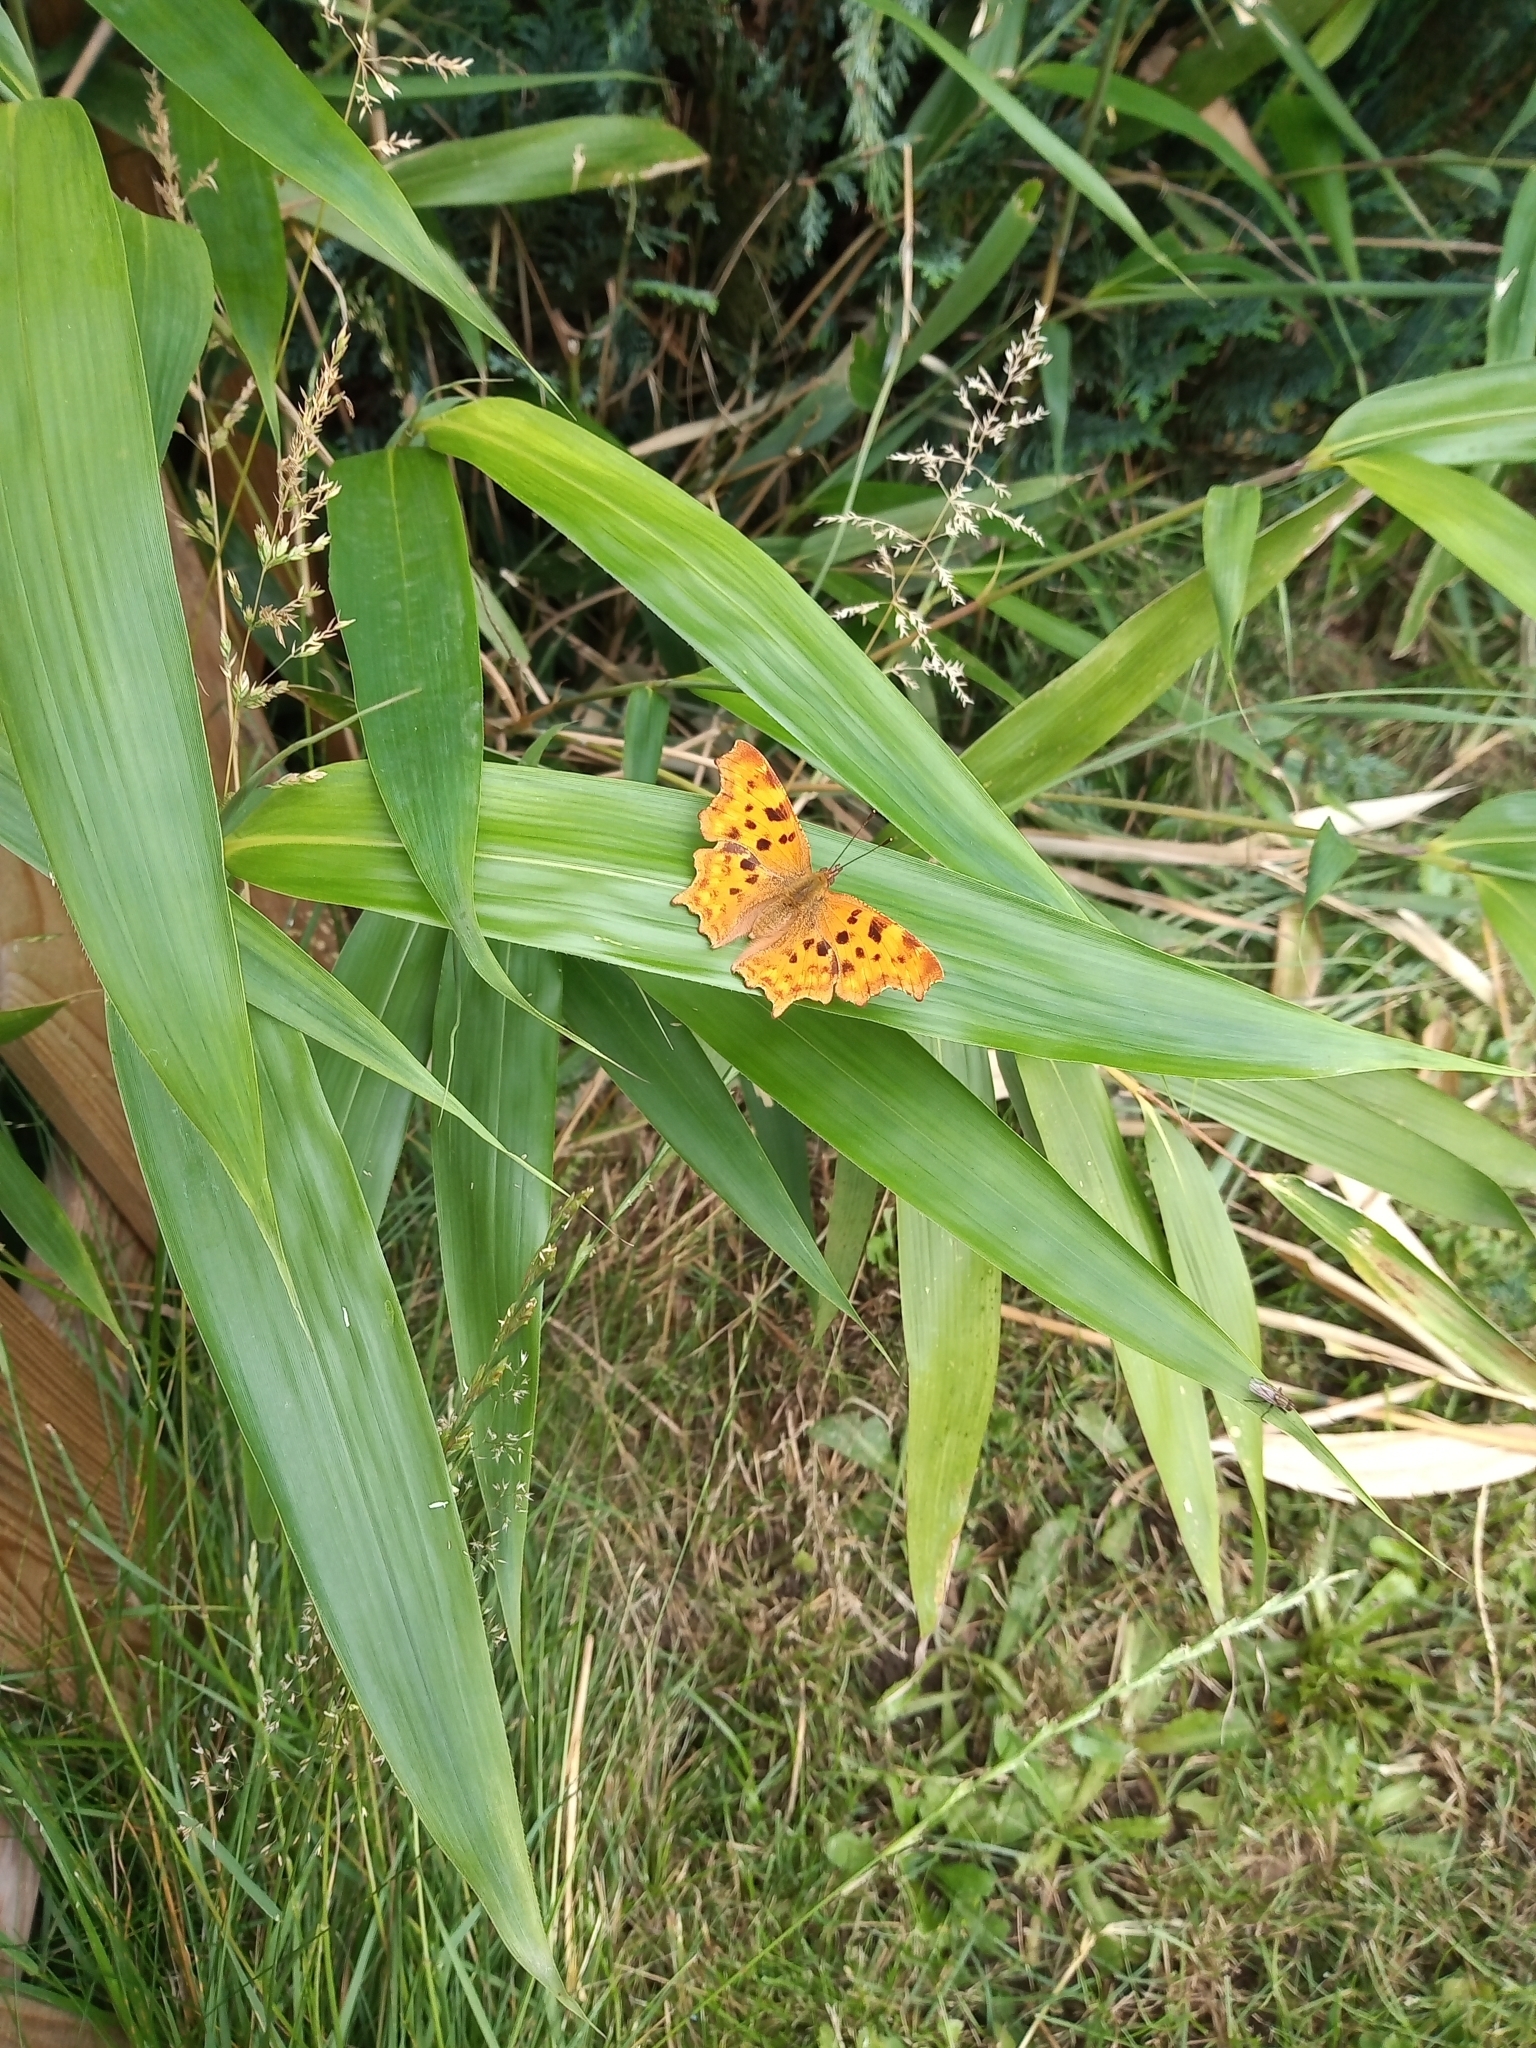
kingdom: Animalia
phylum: Arthropoda
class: Insecta
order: Lepidoptera
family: Nymphalidae
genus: Polygonia
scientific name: Polygonia c-album
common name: Comma
